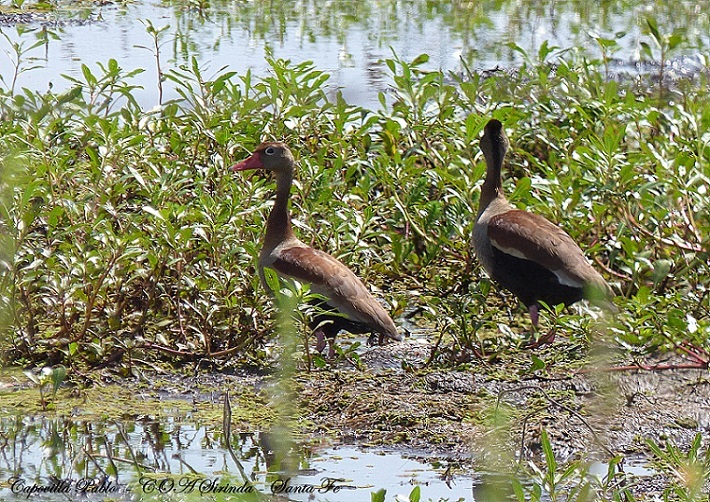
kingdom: Animalia
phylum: Chordata
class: Aves
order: Anseriformes
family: Anatidae
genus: Dendrocygna
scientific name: Dendrocygna autumnalis
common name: Black-bellied whistling duck
